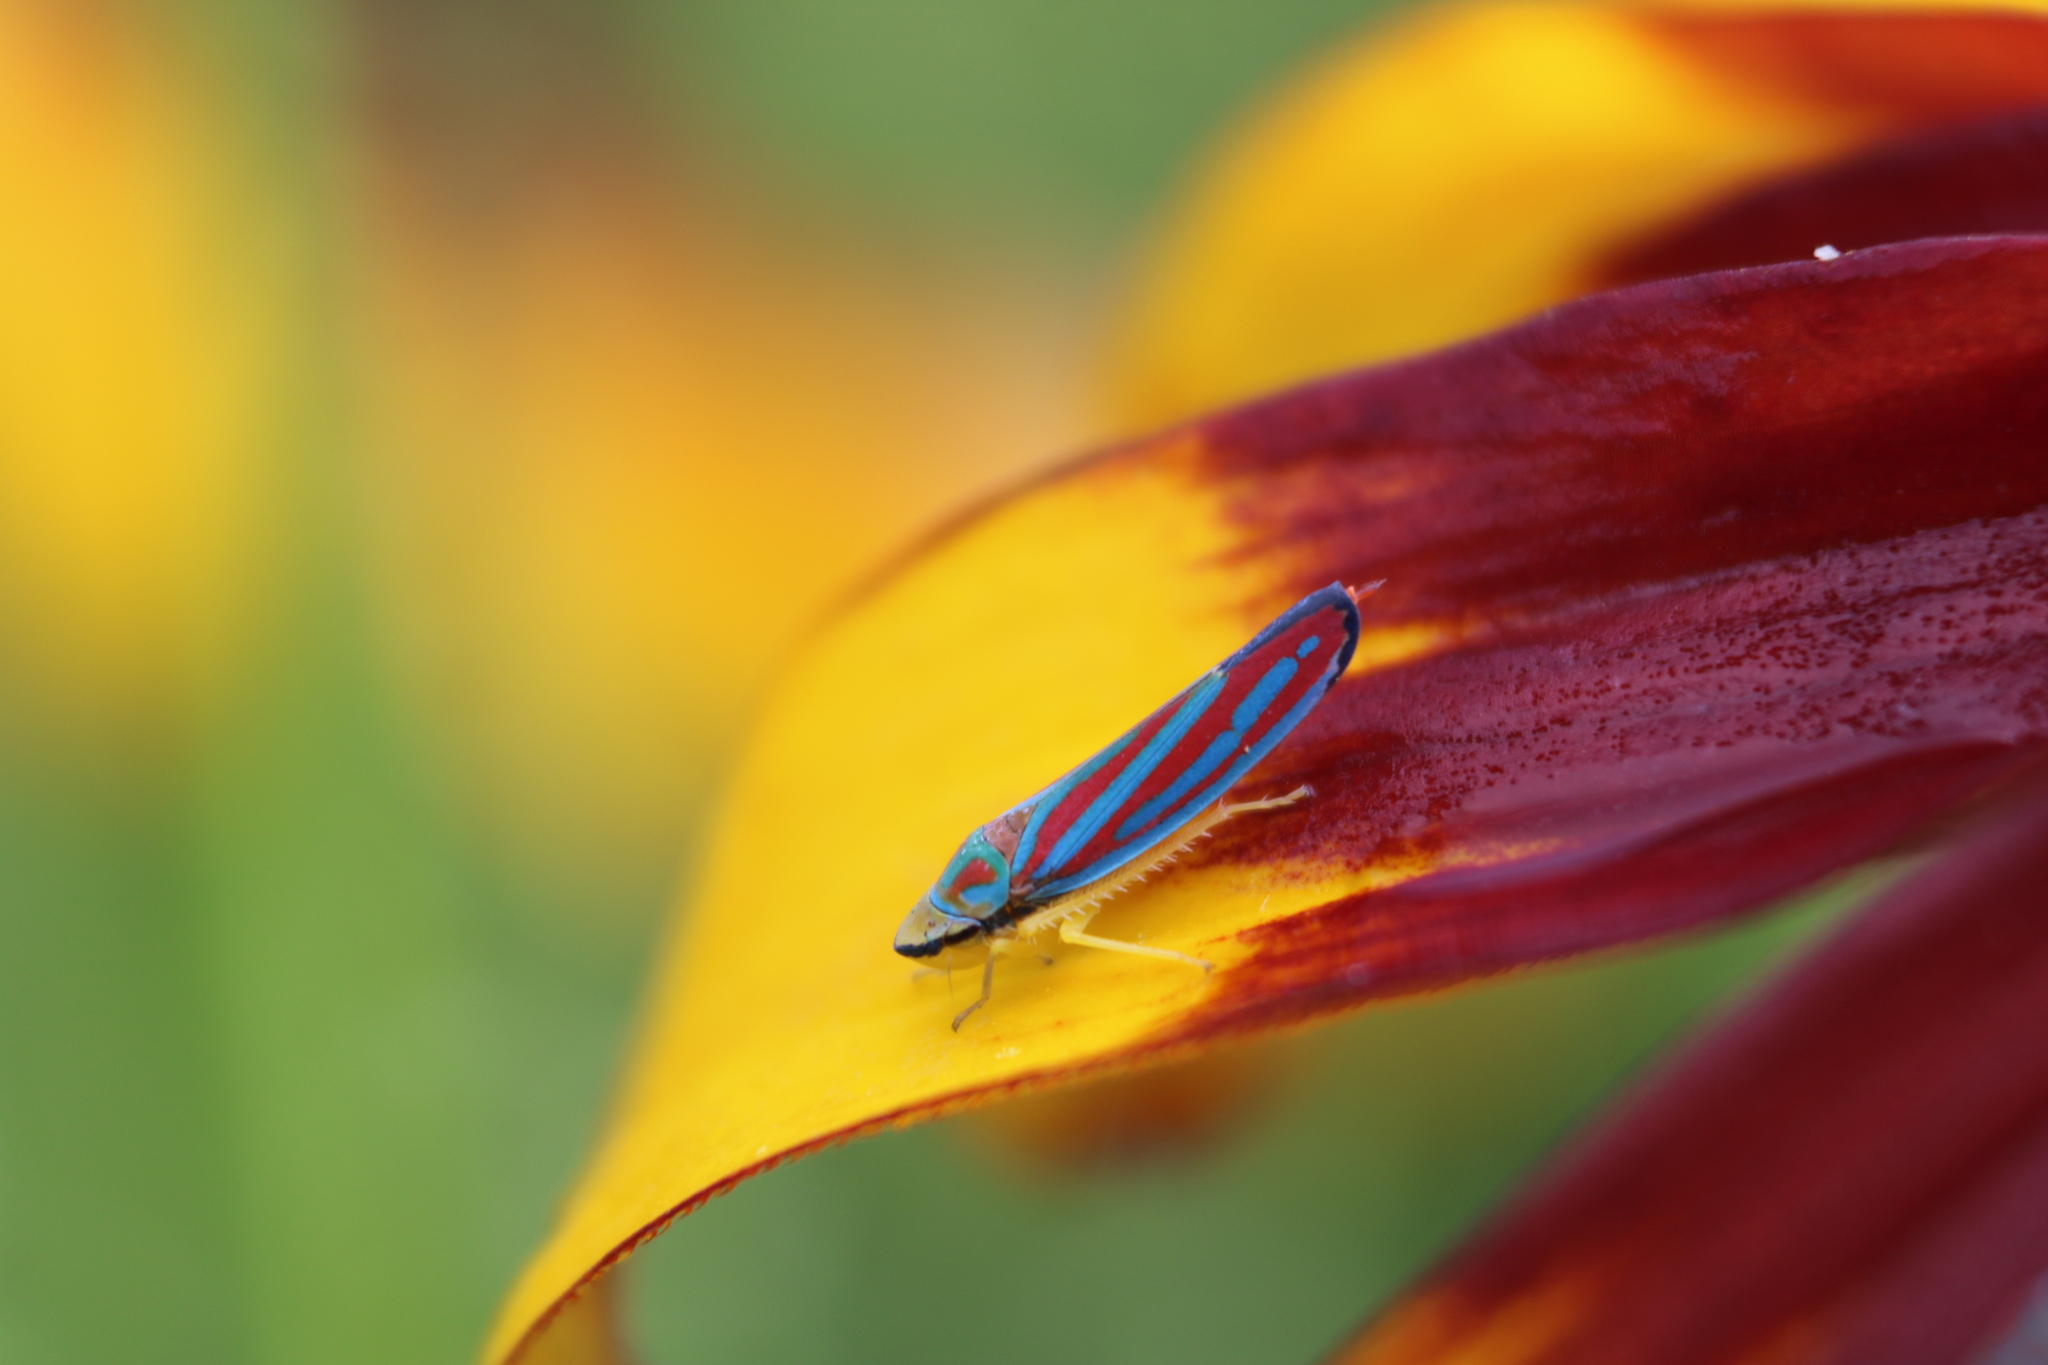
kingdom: Animalia
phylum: Arthropoda
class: Insecta
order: Hemiptera
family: Cicadellidae
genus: Graphocephala
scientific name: Graphocephala coccinea
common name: Candy-striped leafhopper
